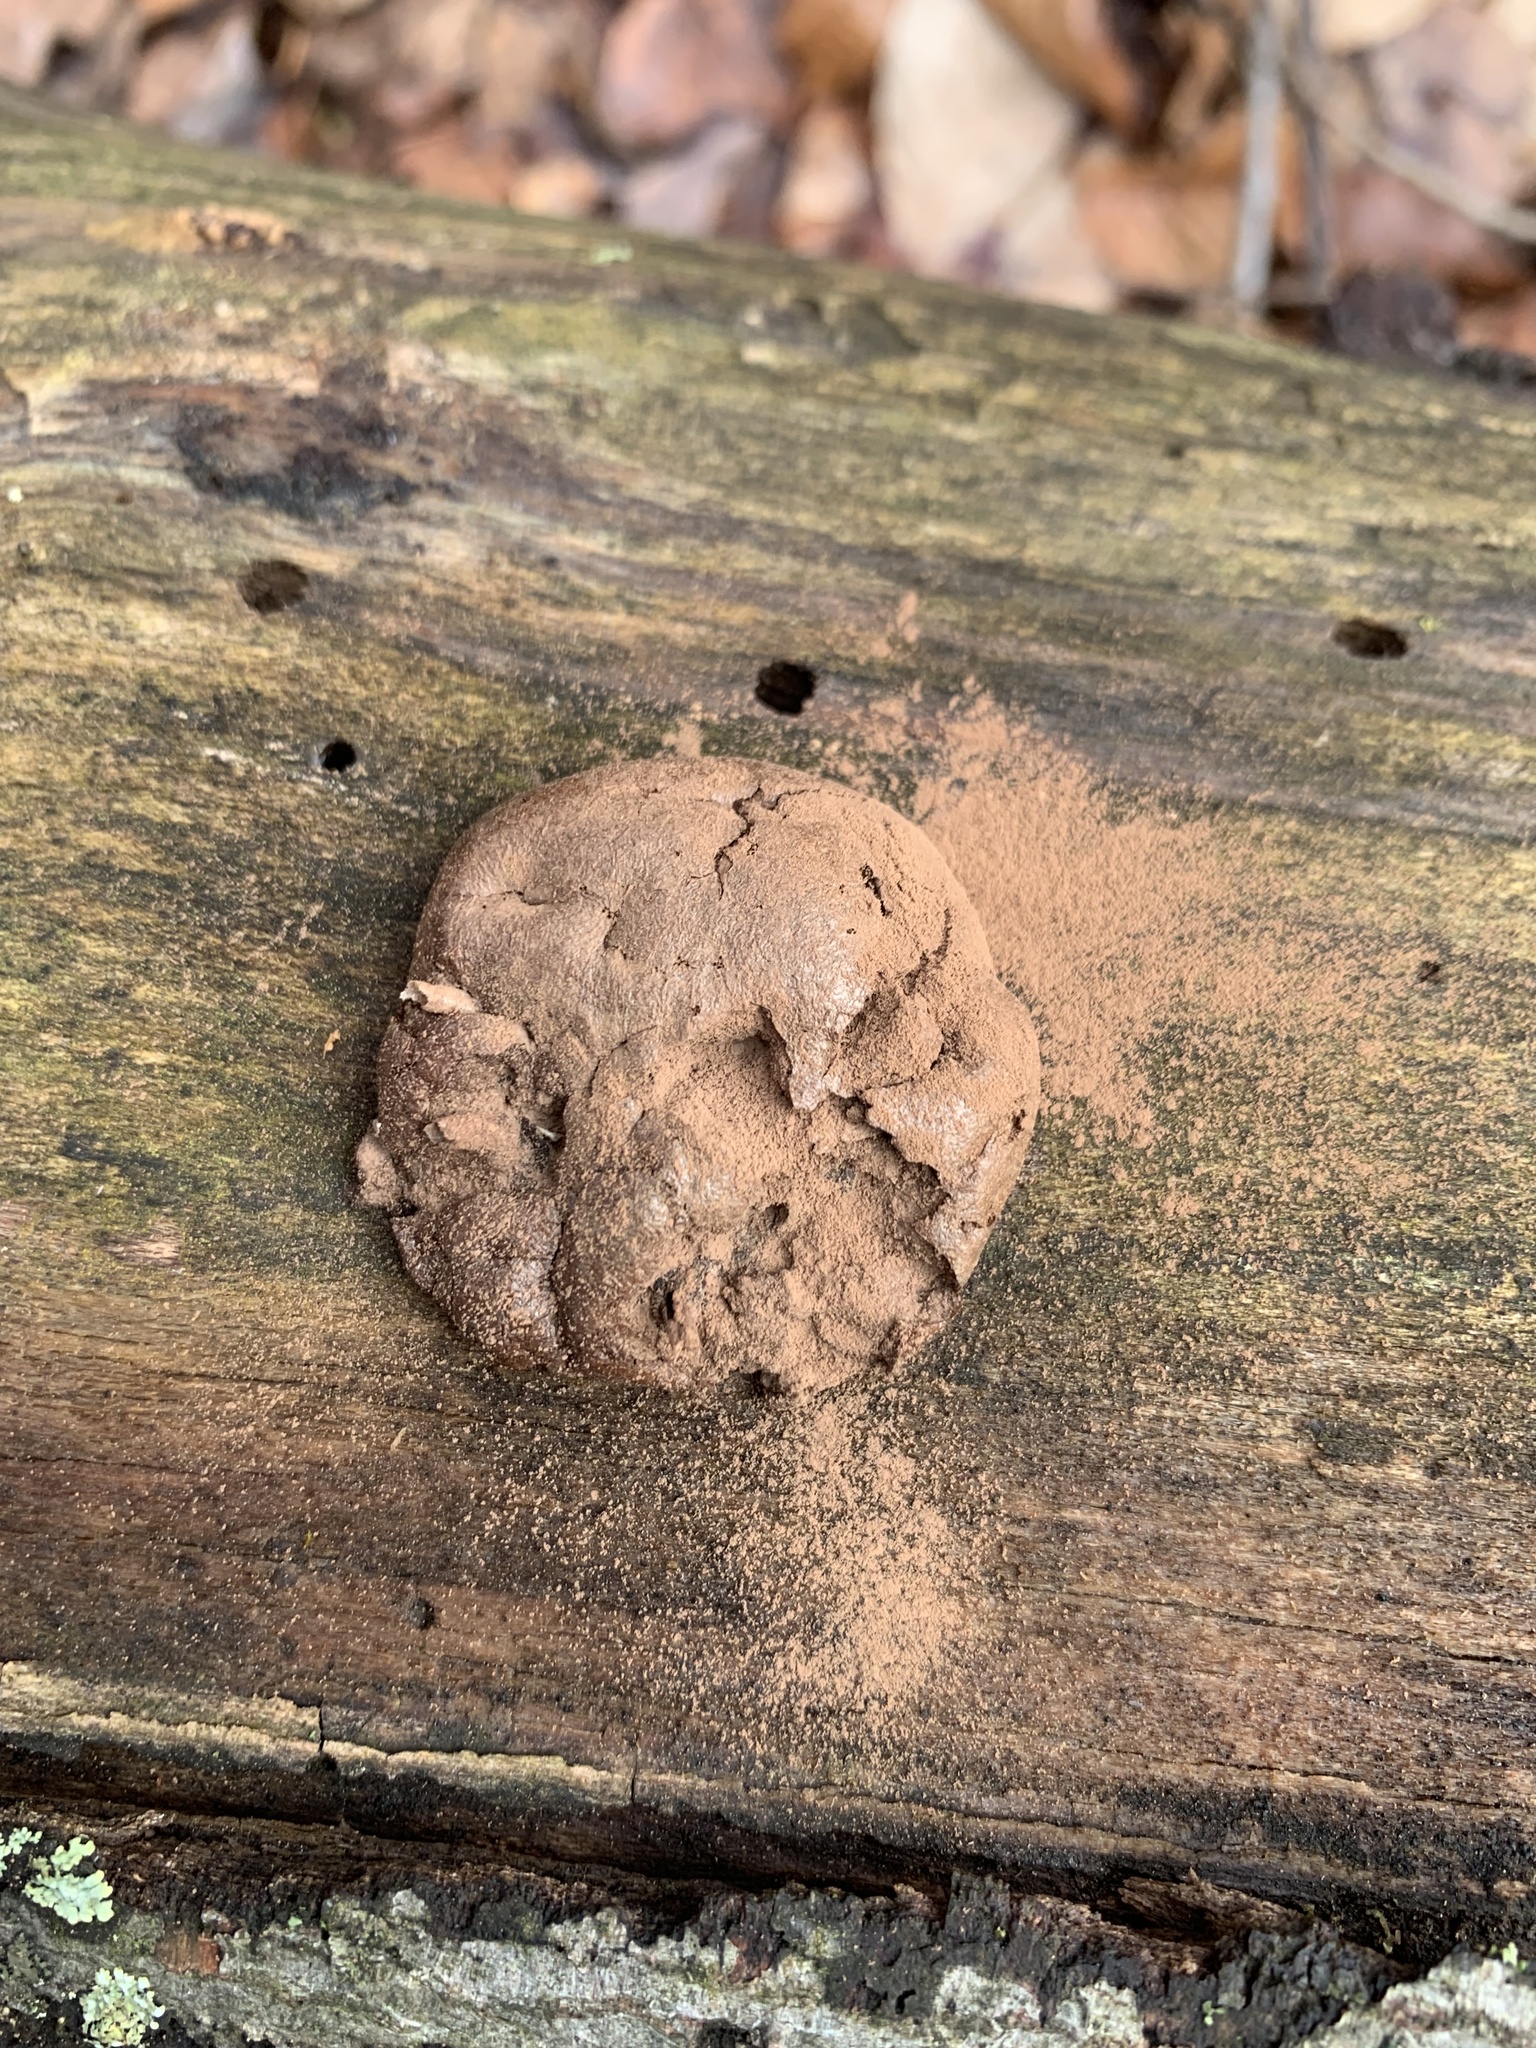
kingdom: Protozoa
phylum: Mycetozoa
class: Myxomycetes
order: Cribrariales
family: Tubiferaceae
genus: Reticularia
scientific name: Reticularia splendens
